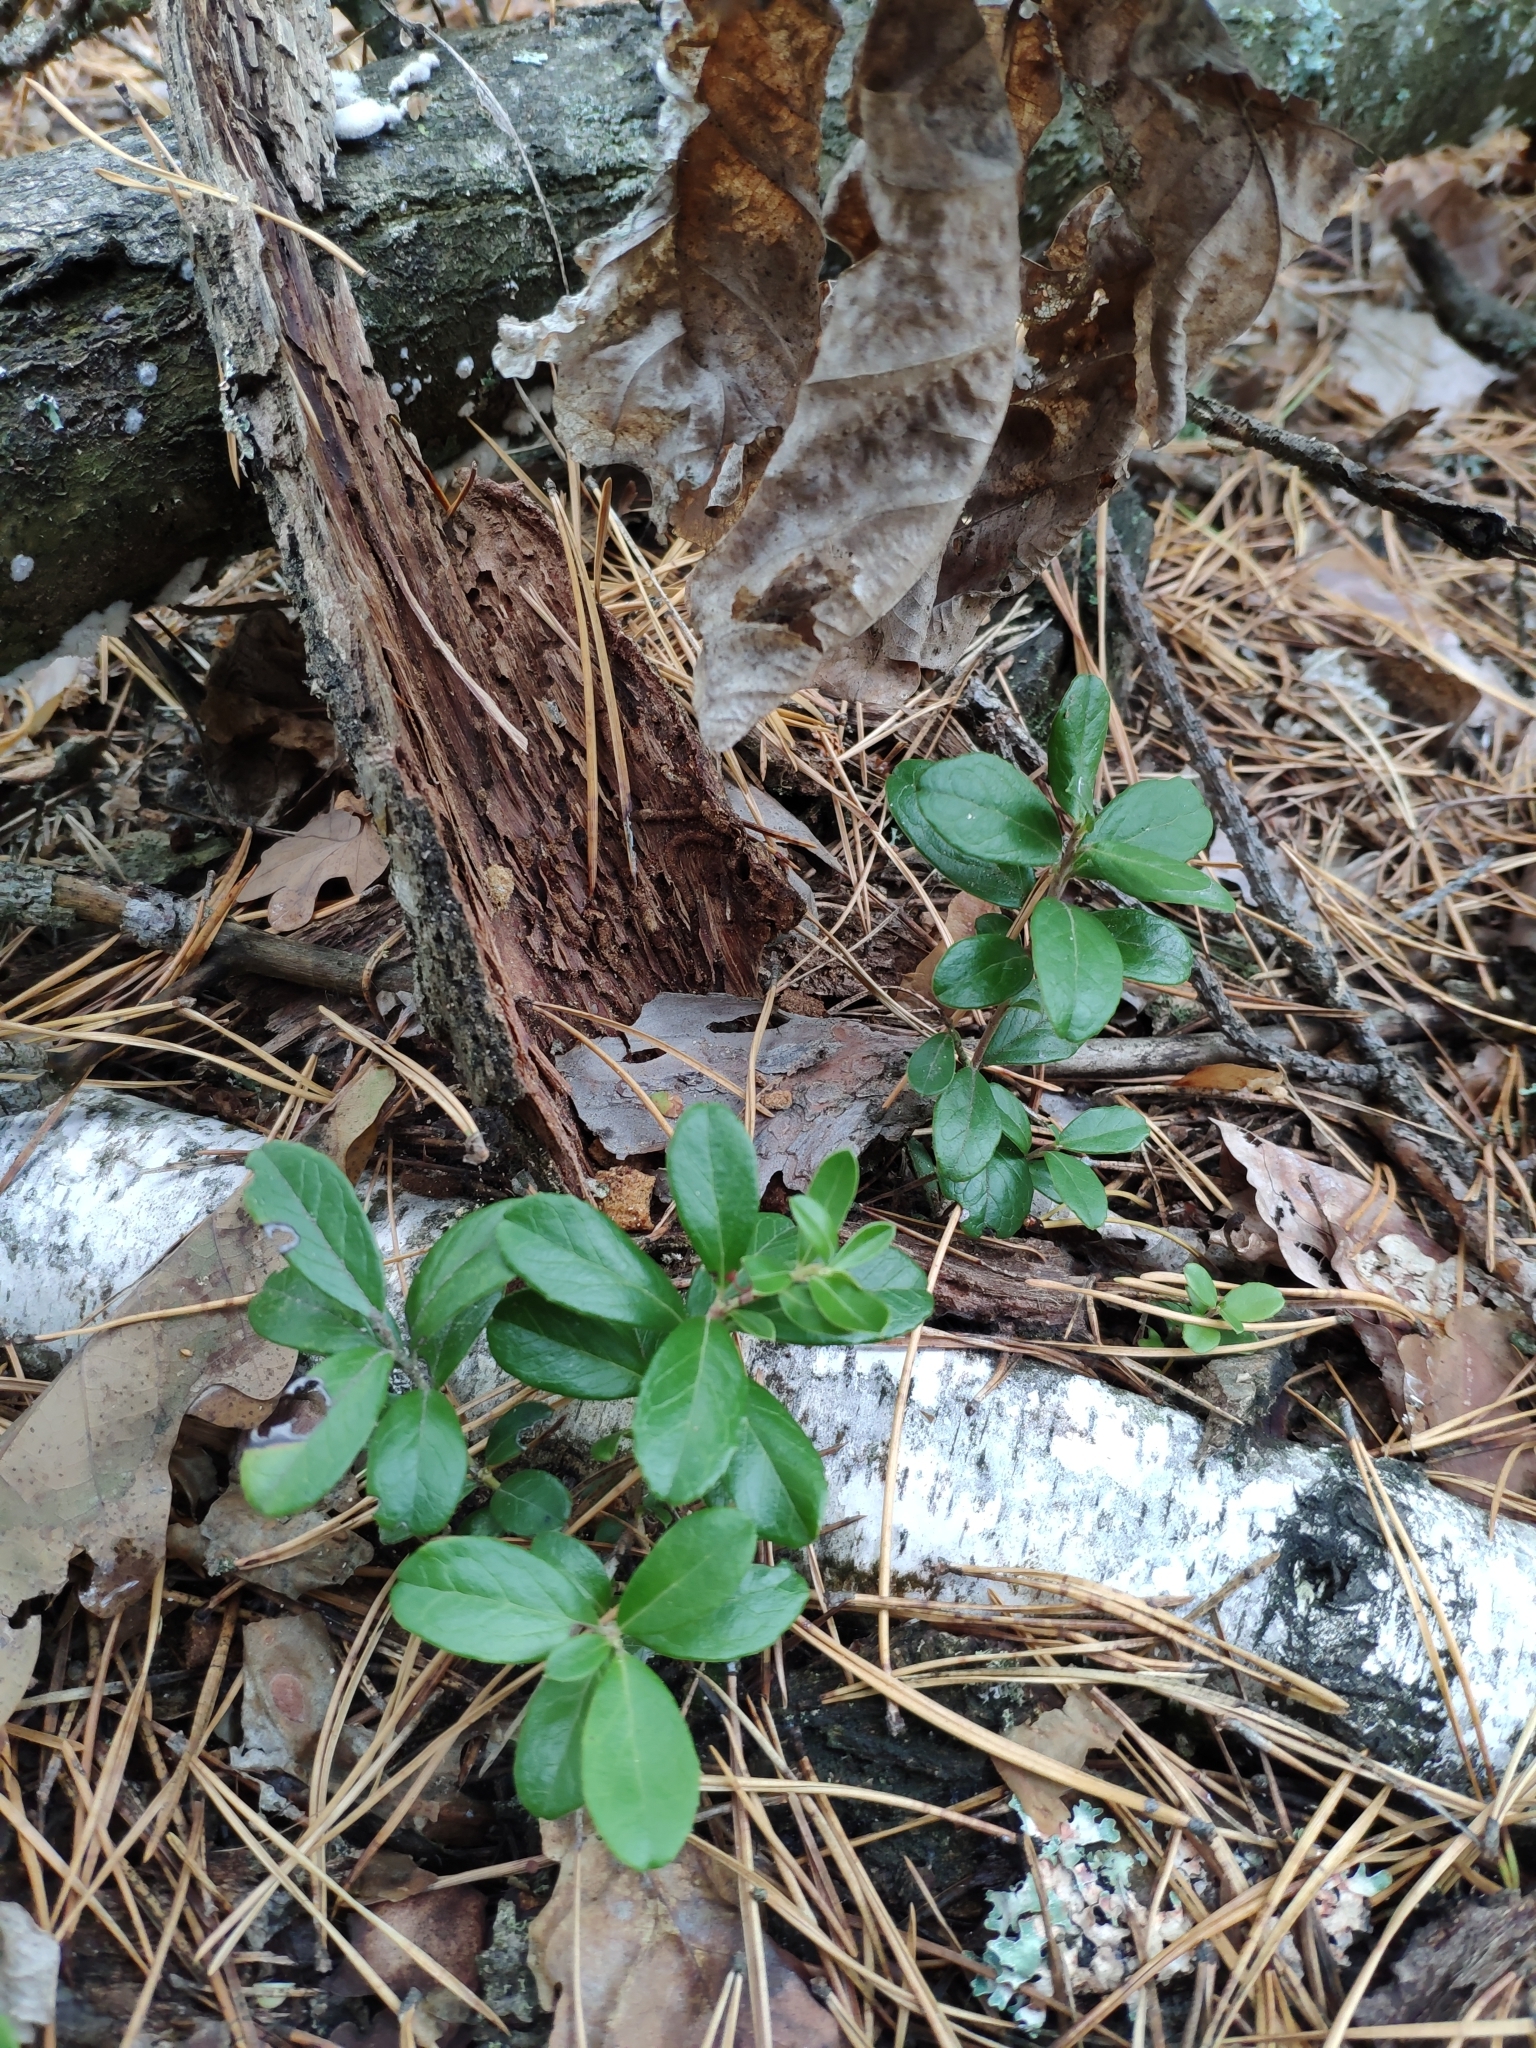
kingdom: Plantae
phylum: Tracheophyta
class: Magnoliopsida
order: Ericales
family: Ericaceae
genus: Vaccinium
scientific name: Vaccinium vitis-idaea
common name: Cowberry
